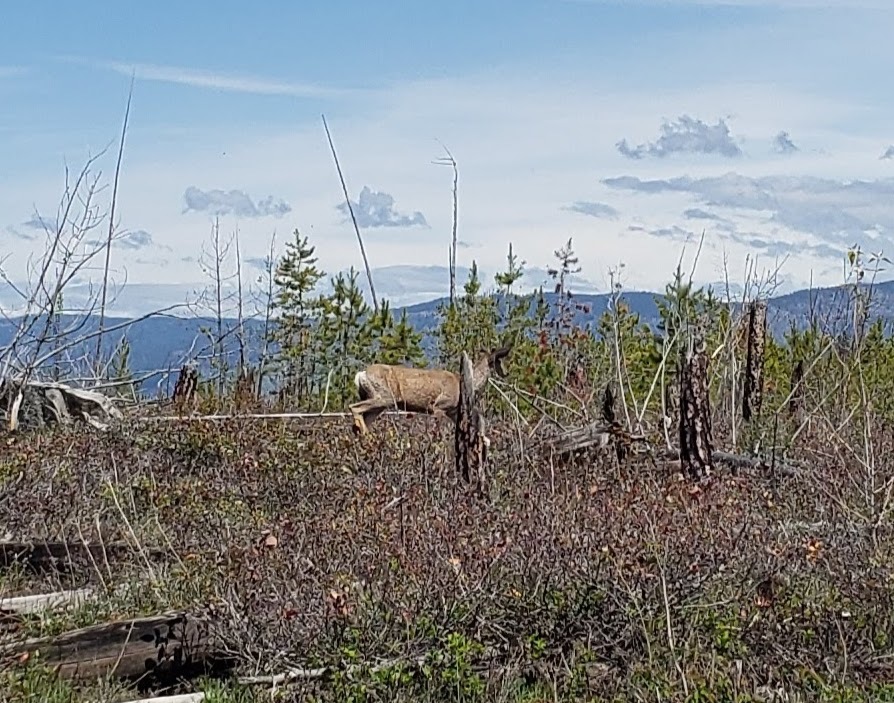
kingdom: Animalia
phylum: Chordata
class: Mammalia
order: Artiodactyla
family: Cervidae
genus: Odocoileus
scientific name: Odocoileus hemionus
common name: Mule deer
